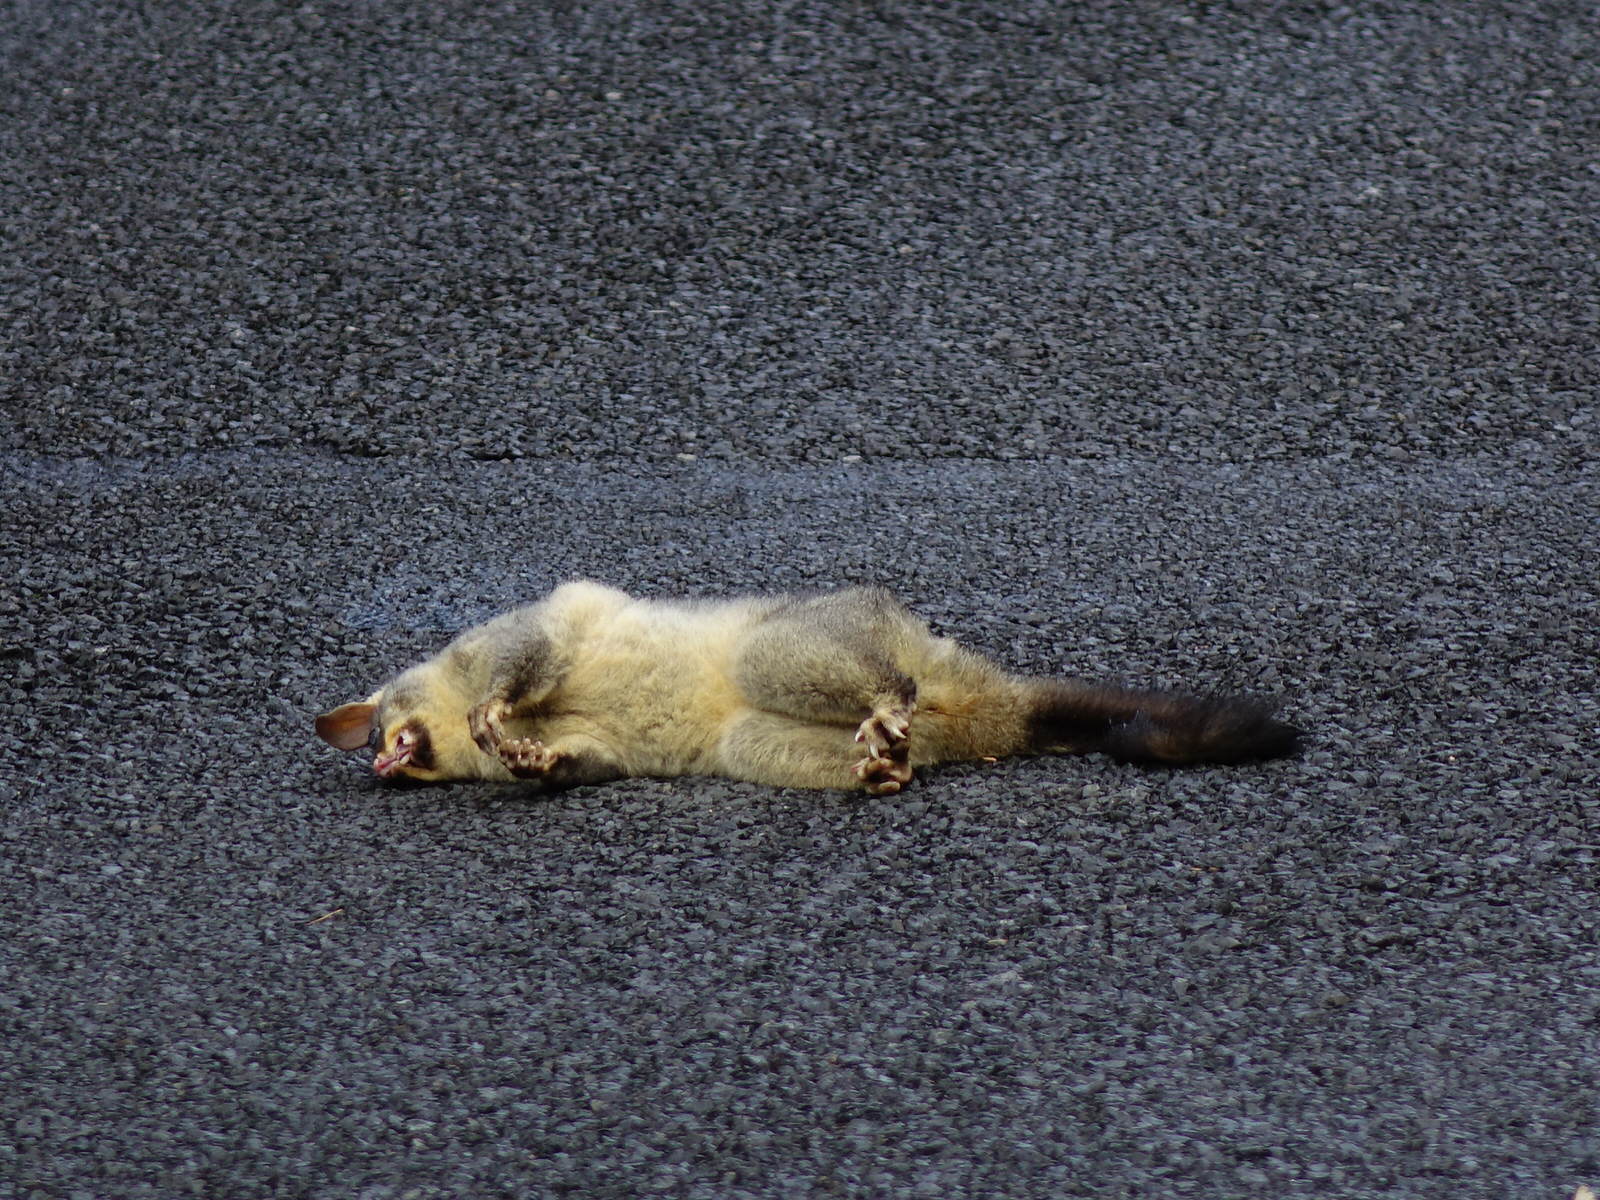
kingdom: Animalia
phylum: Chordata
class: Mammalia
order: Diprotodontia
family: Phalangeridae
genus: Trichosurus
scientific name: Trichosurus vulpecula
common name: Common brushtail
